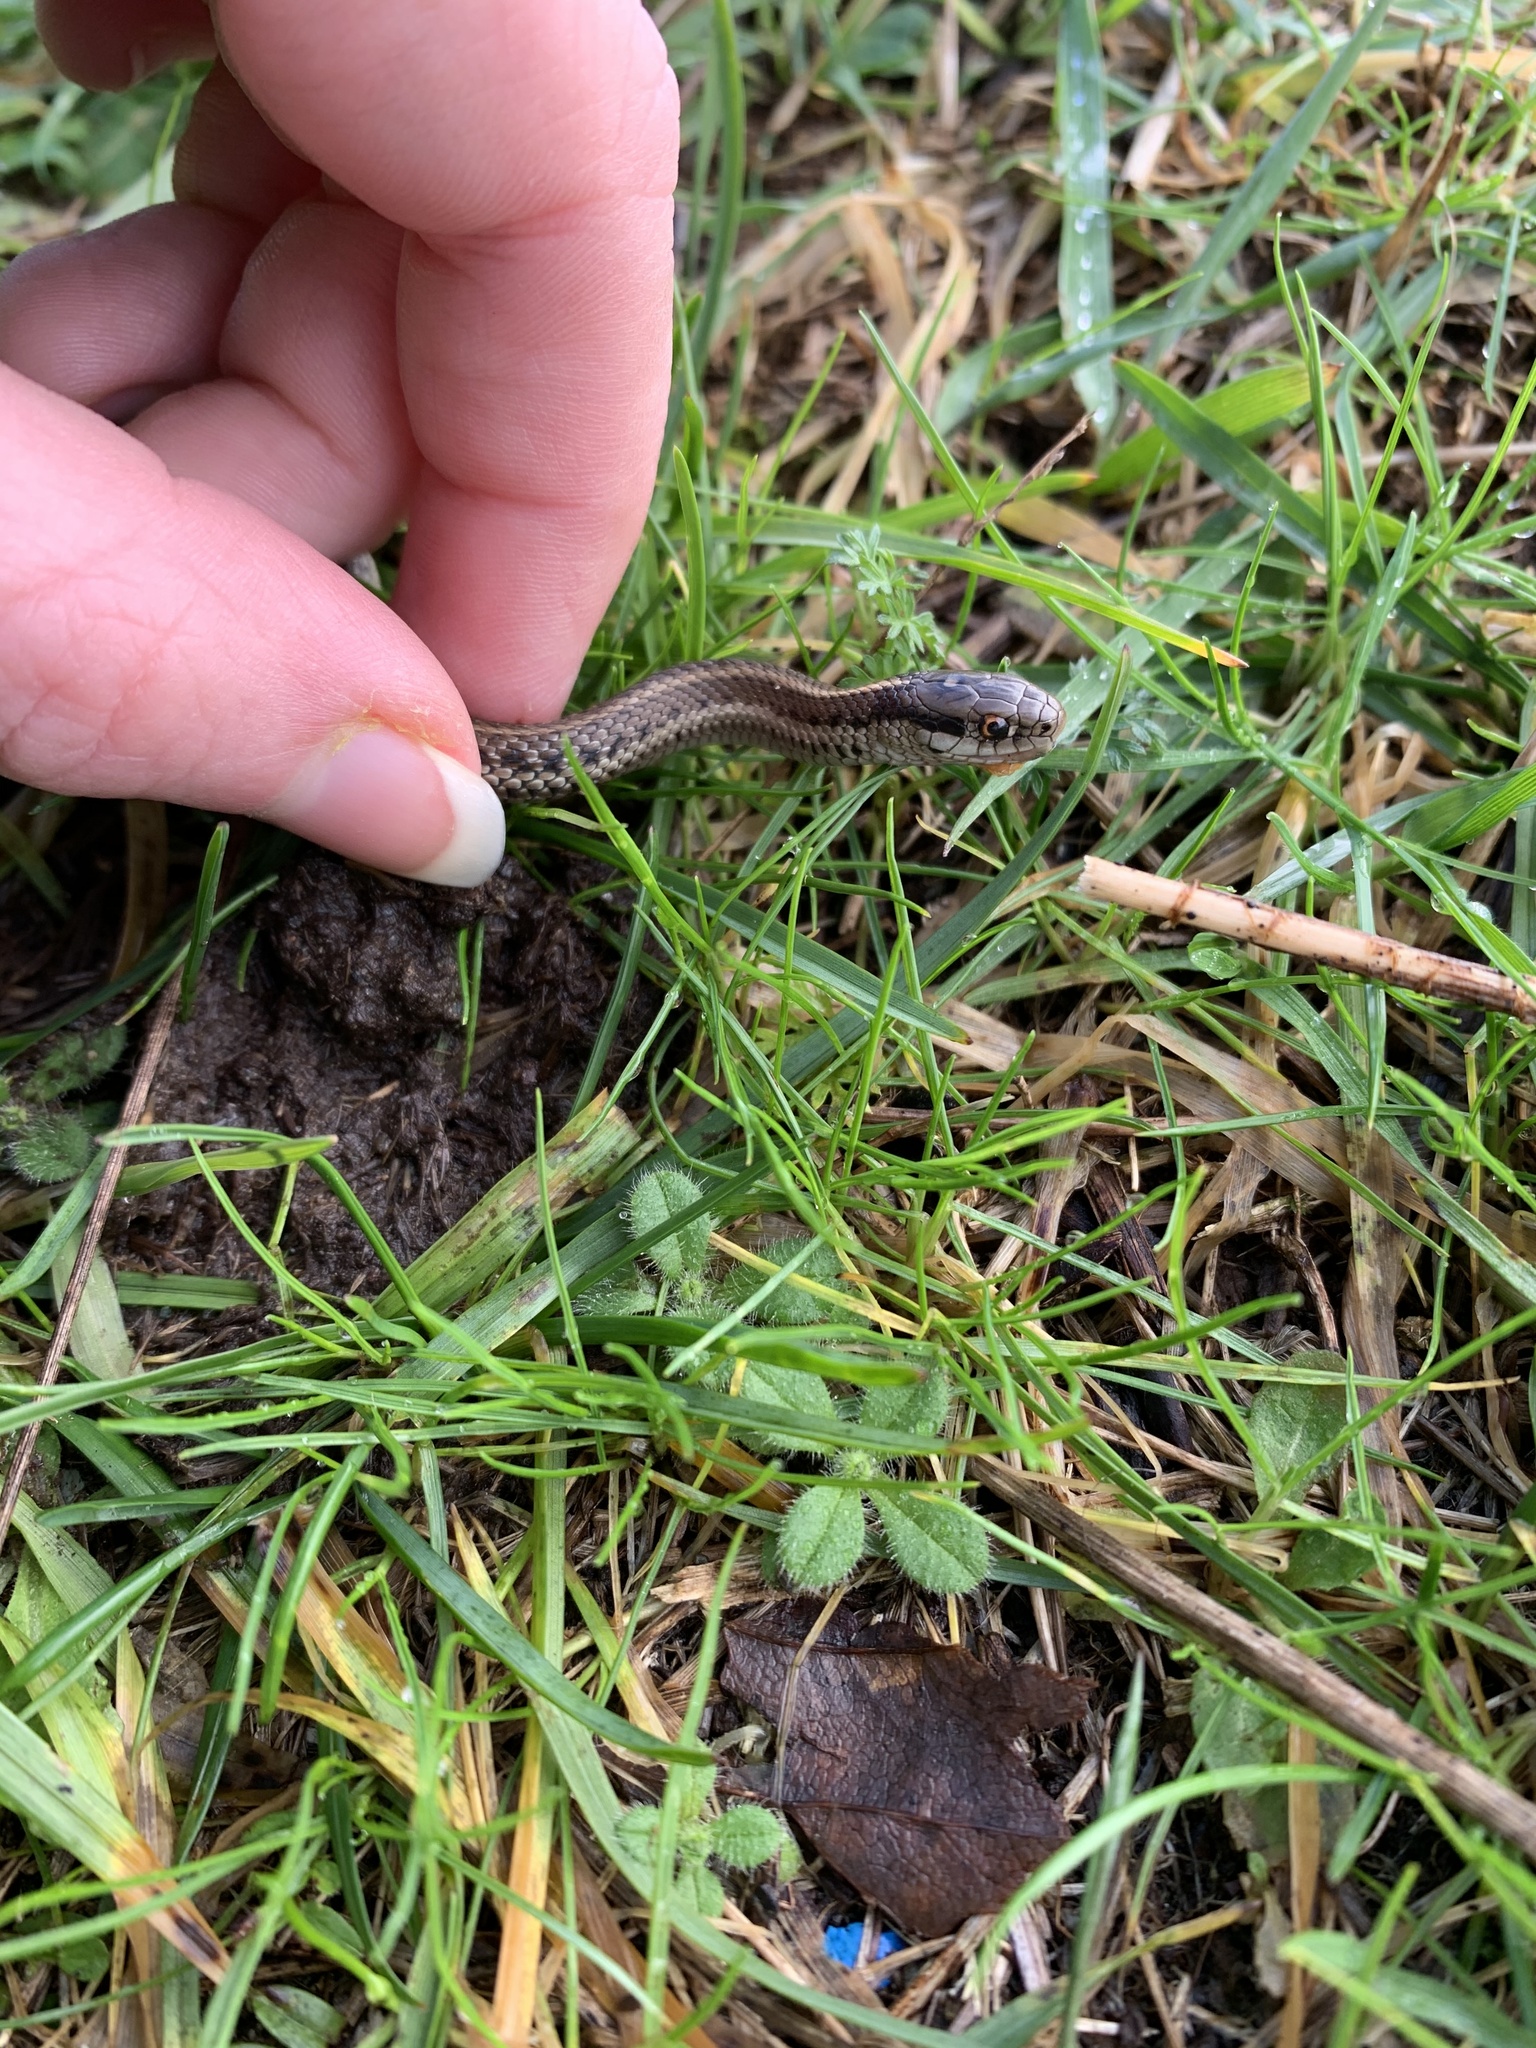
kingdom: Animalia
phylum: Chordata
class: Squamata
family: Colubridae
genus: Thamnophis
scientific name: Thamnophis ordinoides
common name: Northwestern garter snake
